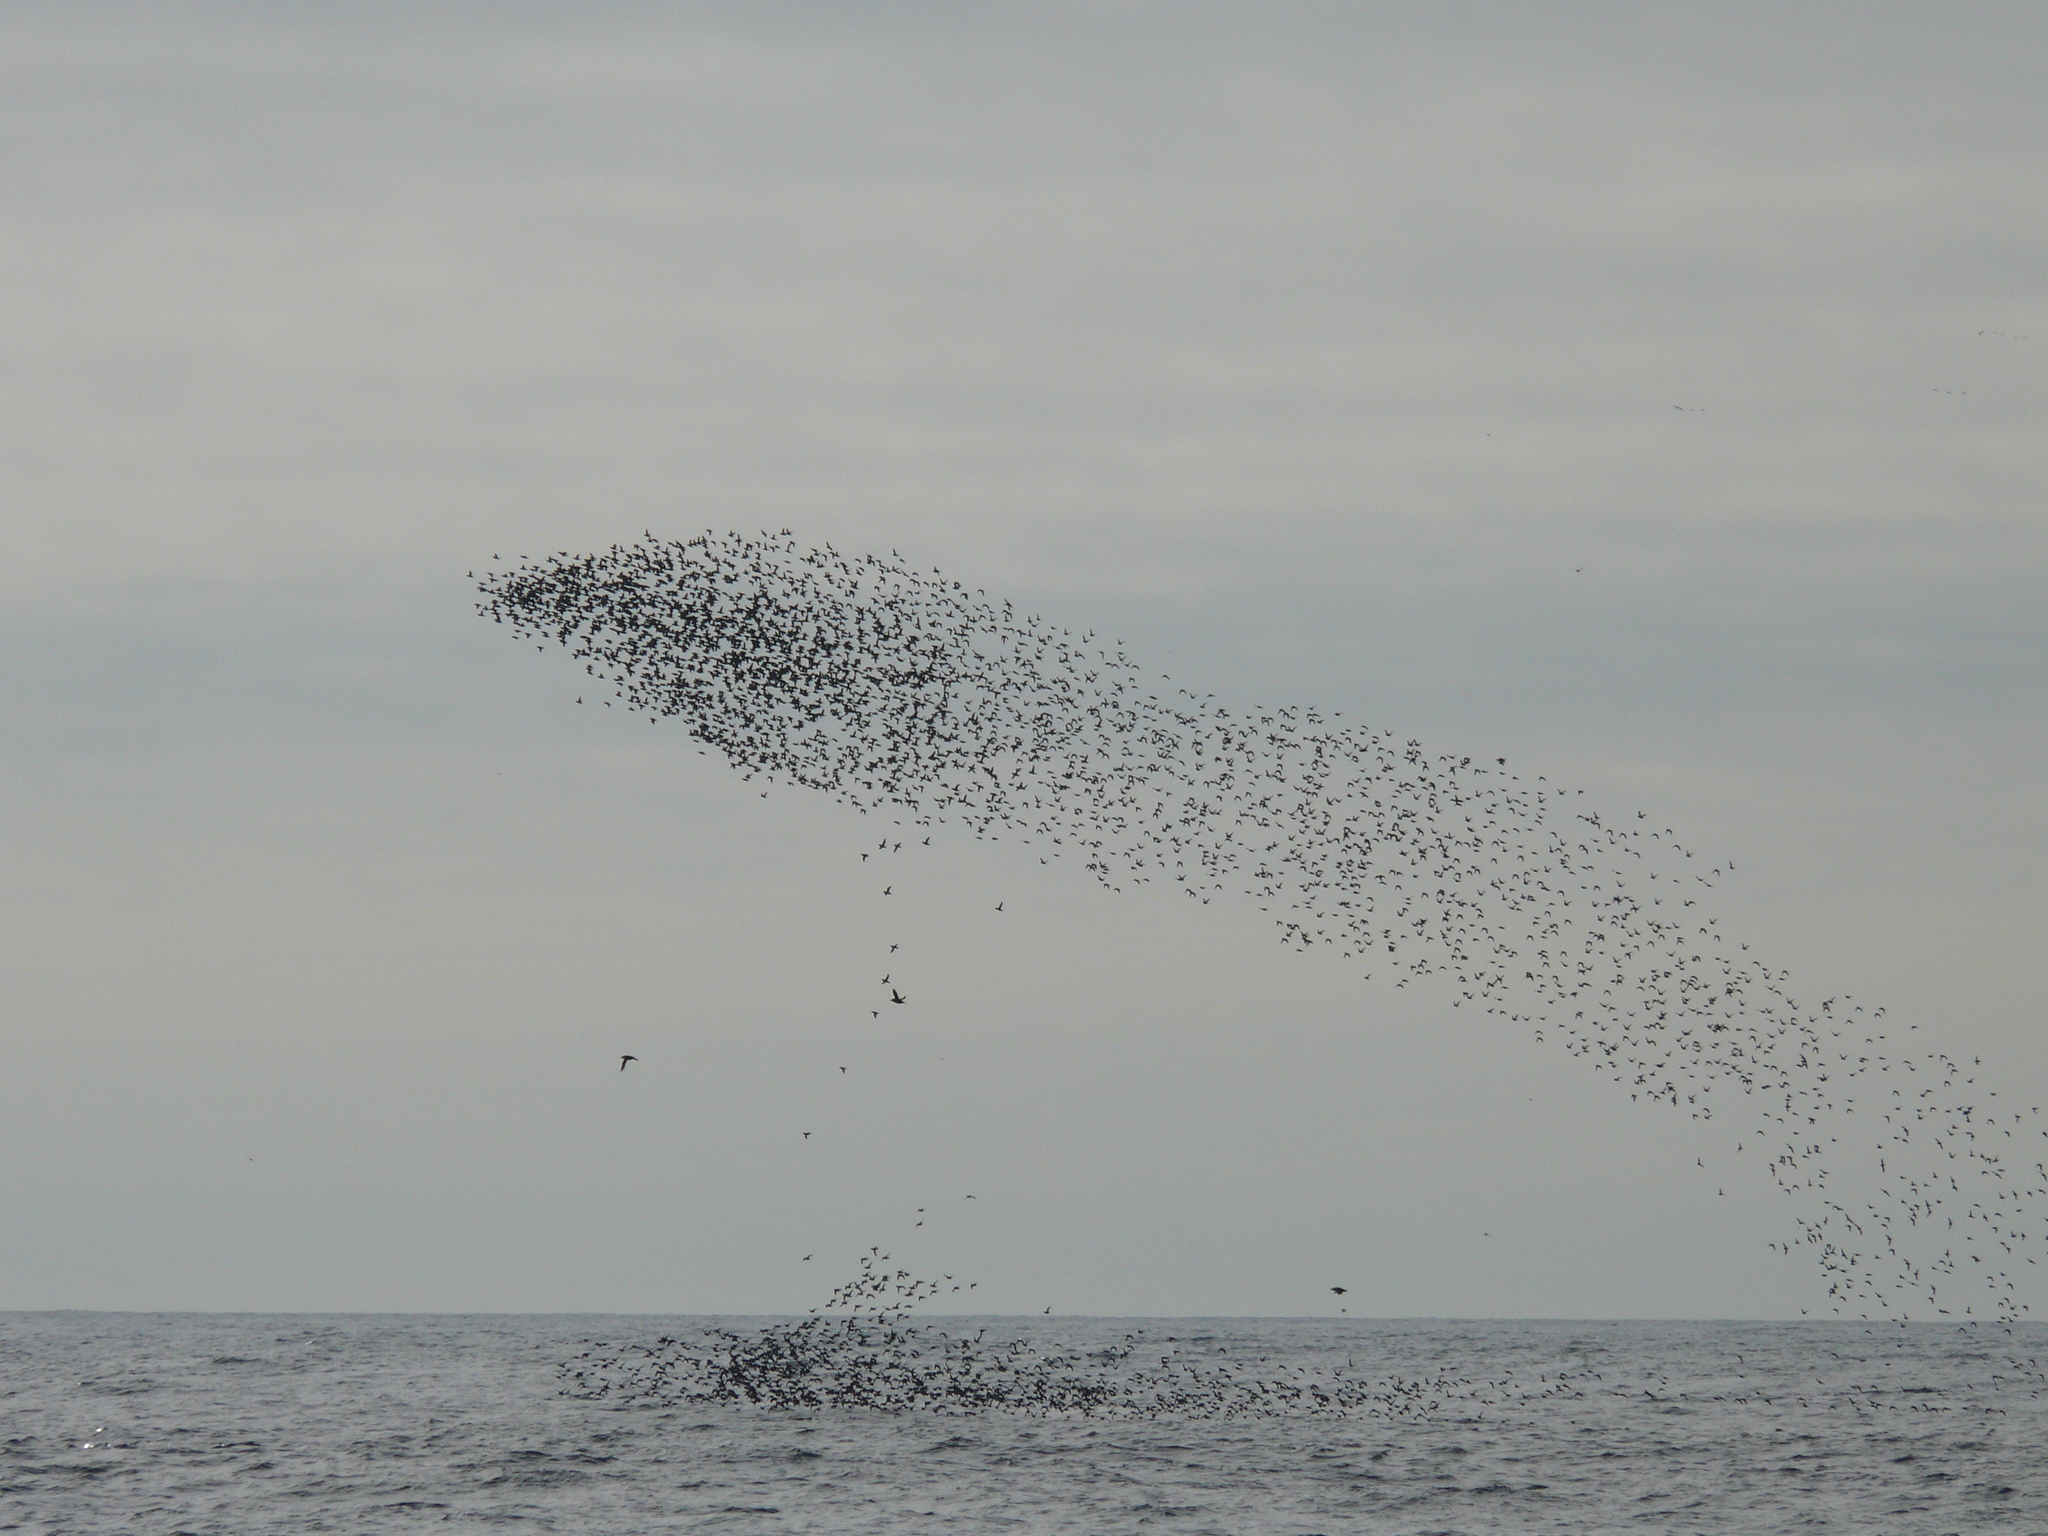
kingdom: Animalia
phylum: Chordata
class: Aves
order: Charadriiformes
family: Alcidae
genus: Aethia
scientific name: Aethia psittacula
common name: Parakeet auklet
